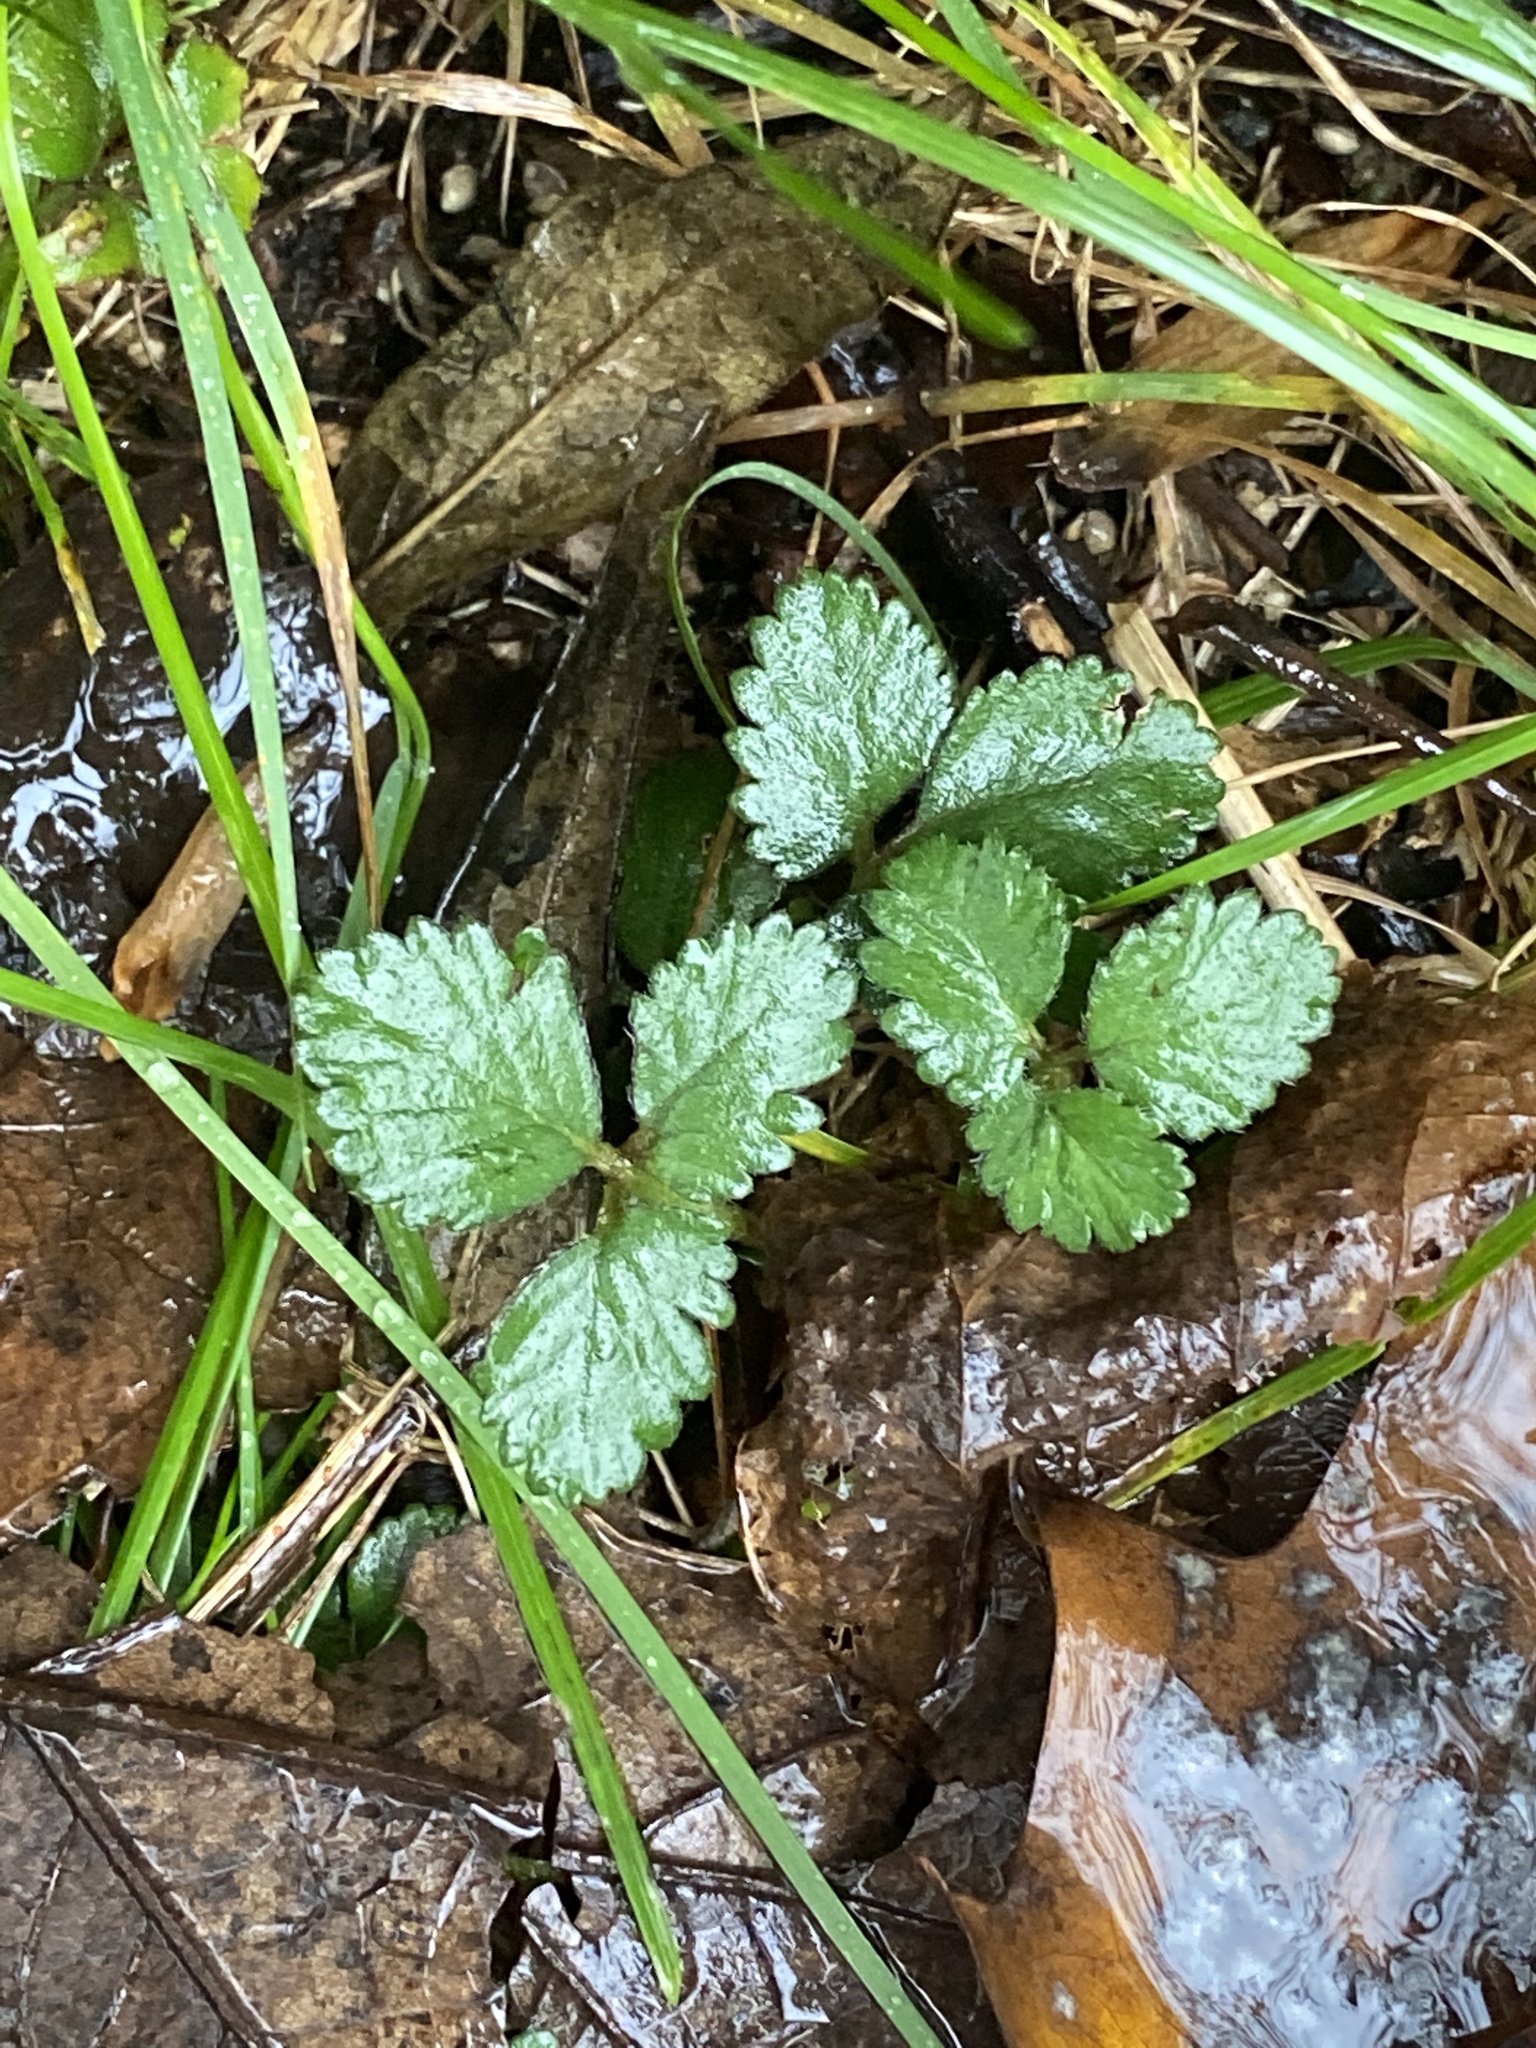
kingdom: Plantae
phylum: Tracheophyta
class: Magnoliopsida
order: Rosales
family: Rosaceae
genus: Potentilla
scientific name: Potentilla indica
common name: Yellow-flowered strawberry
